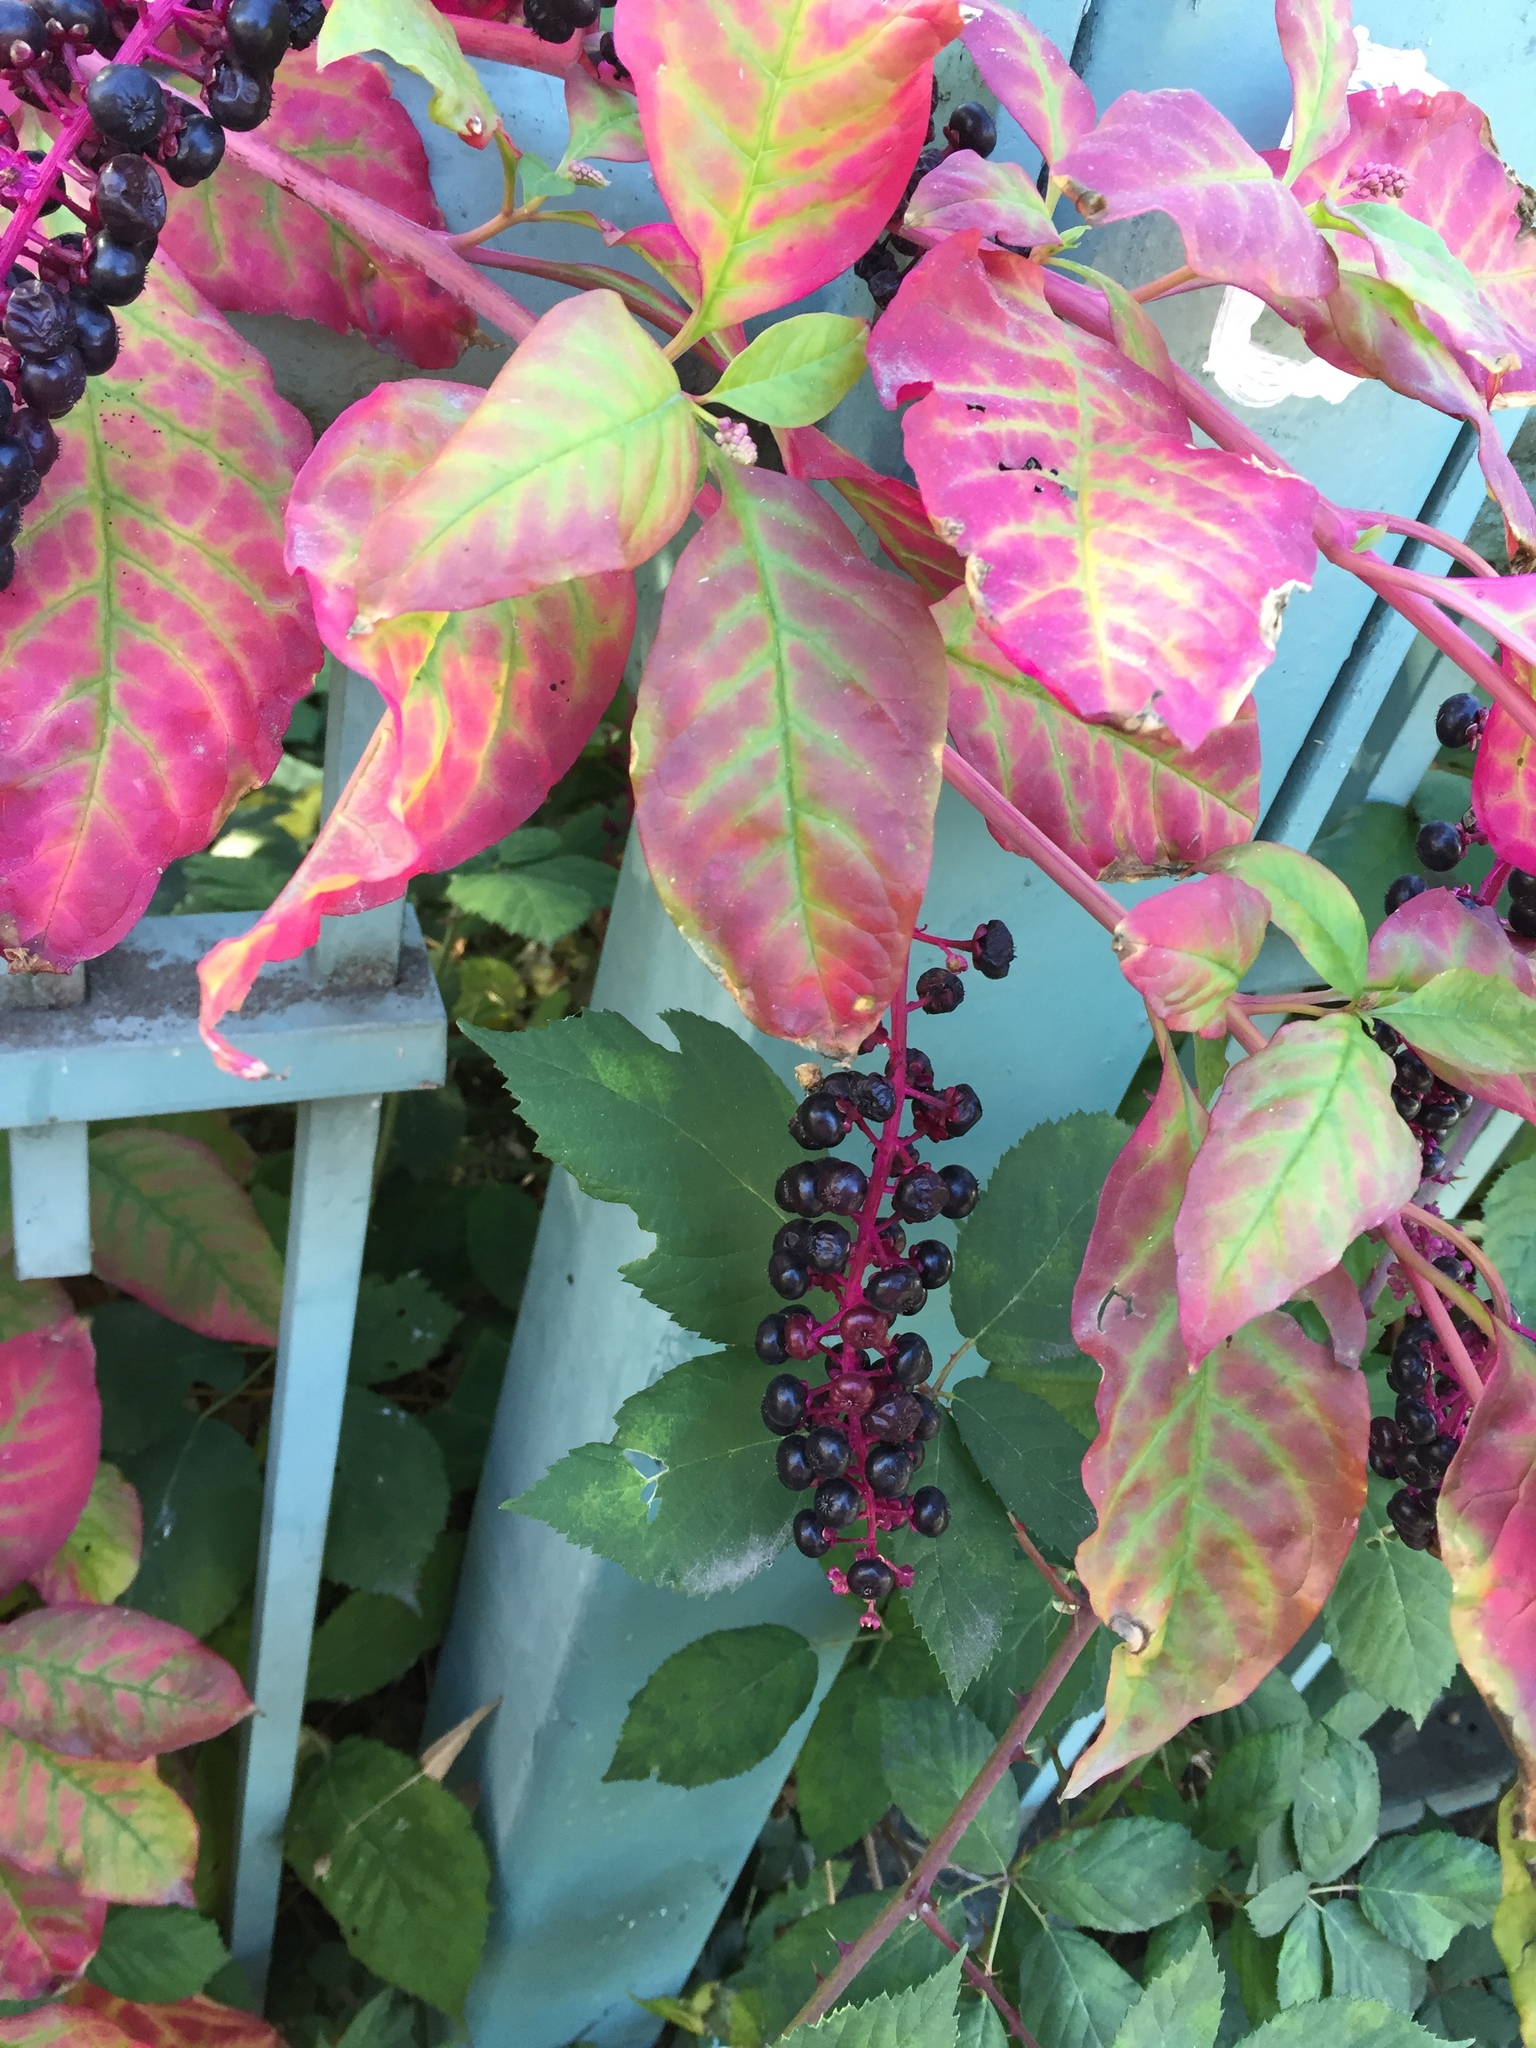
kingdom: Plantae
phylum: Tracheophyta
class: Magnoliopsida
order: Caryophyllales
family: Phytolaccaceae
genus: Phytolacca
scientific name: Phytolacca americana
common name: American pokeweed
